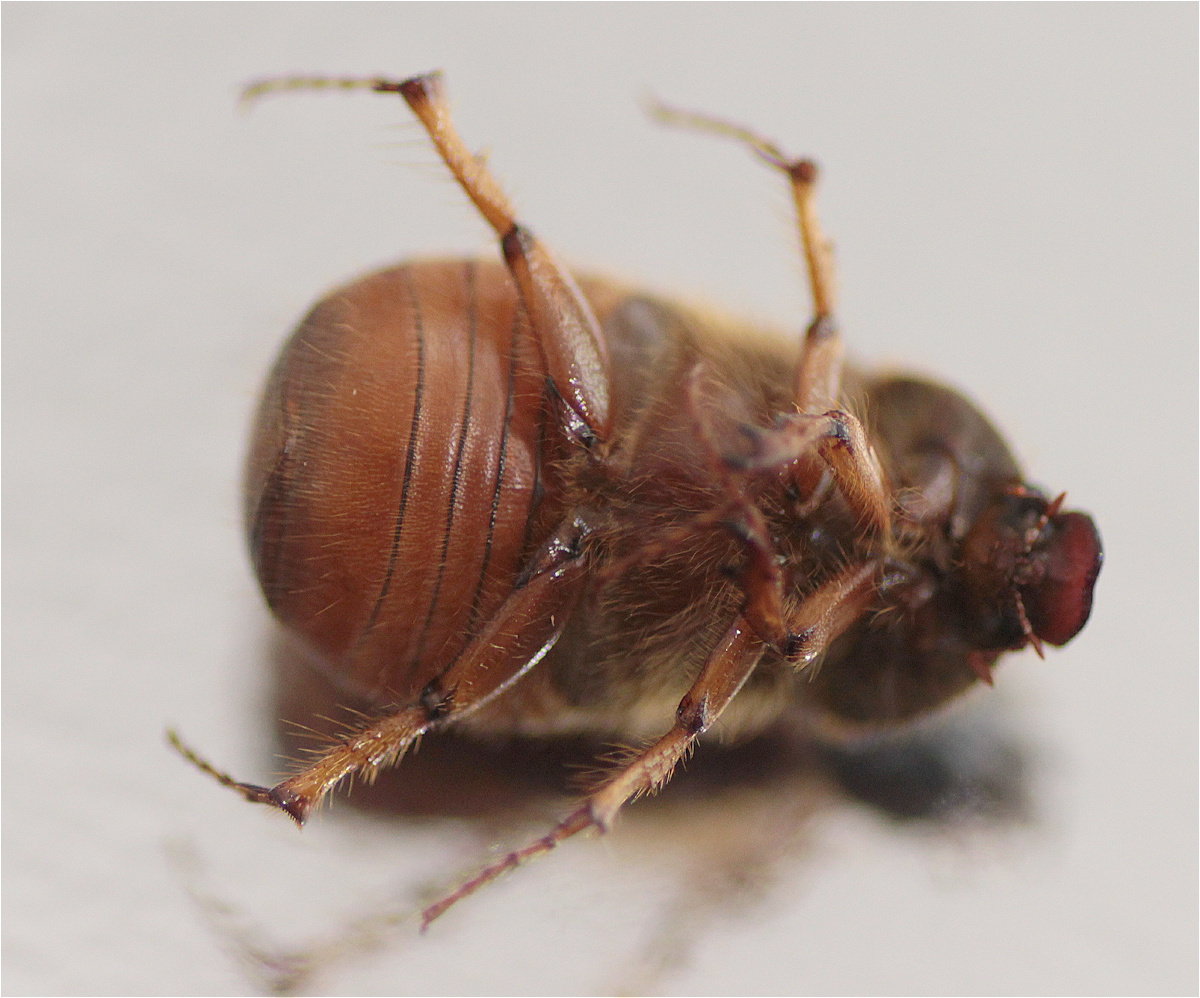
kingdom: Animalia
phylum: Arthropoda
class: Insecta
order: Coleoptera
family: Scarabaeidae
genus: Paulosawaya
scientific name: Paulosawaya ursina
